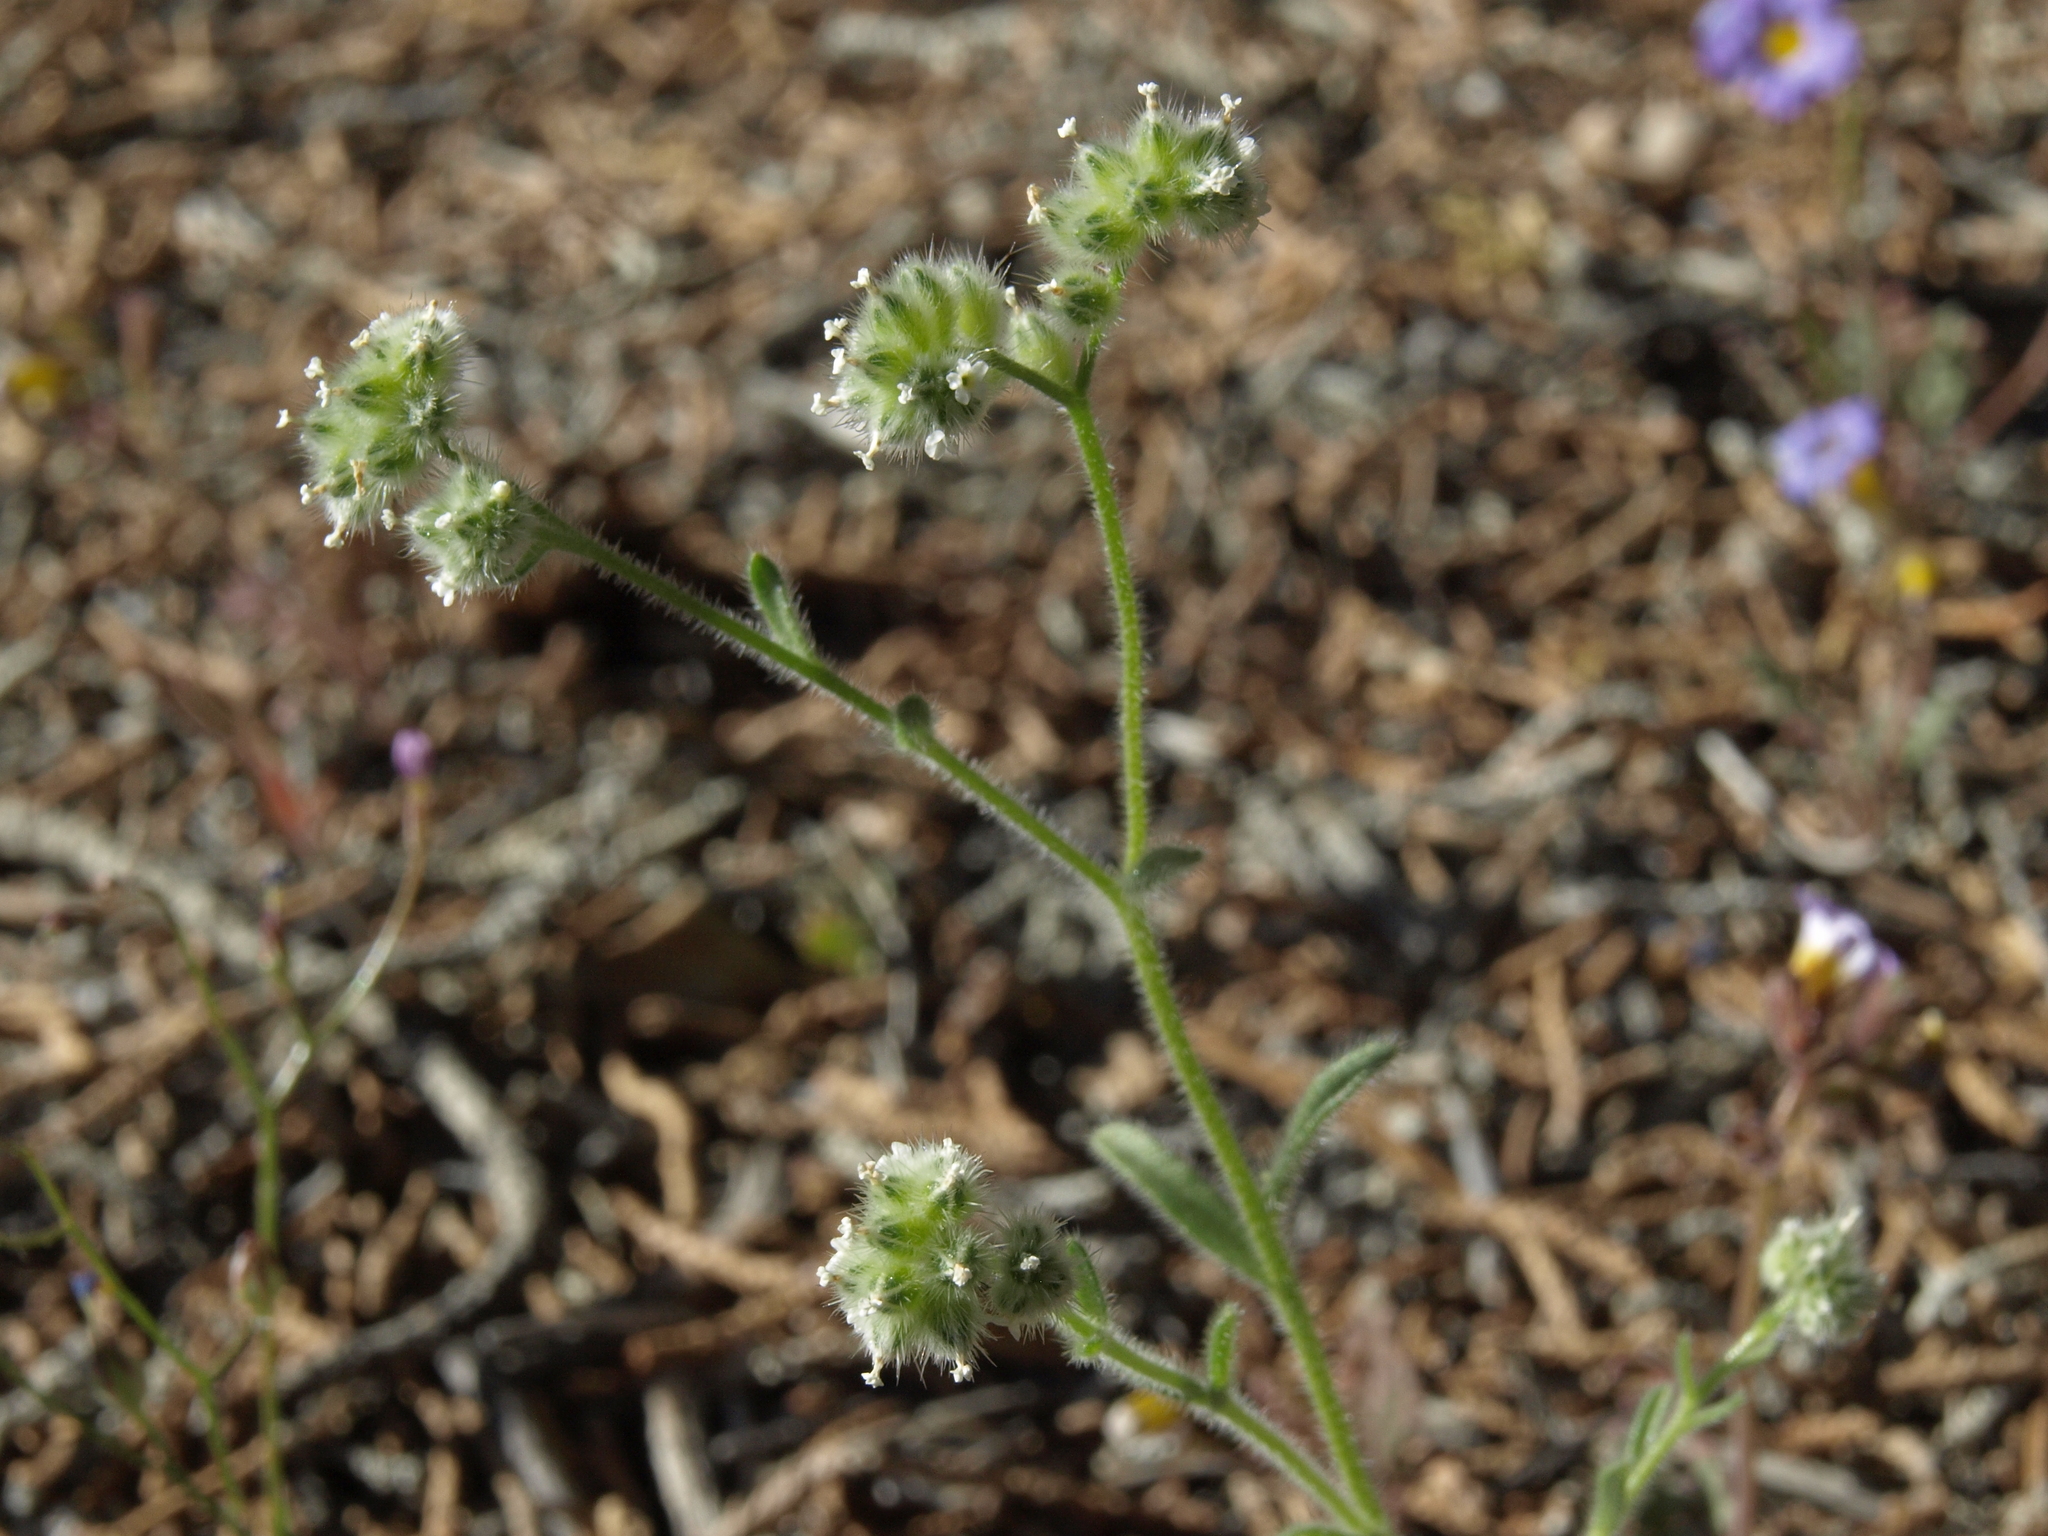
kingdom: Plantae
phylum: Tracheophyta
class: Magnoliopsida
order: Boraginales
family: Boraginaceae
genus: Cryptantha
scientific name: Cryptantha gracilis
